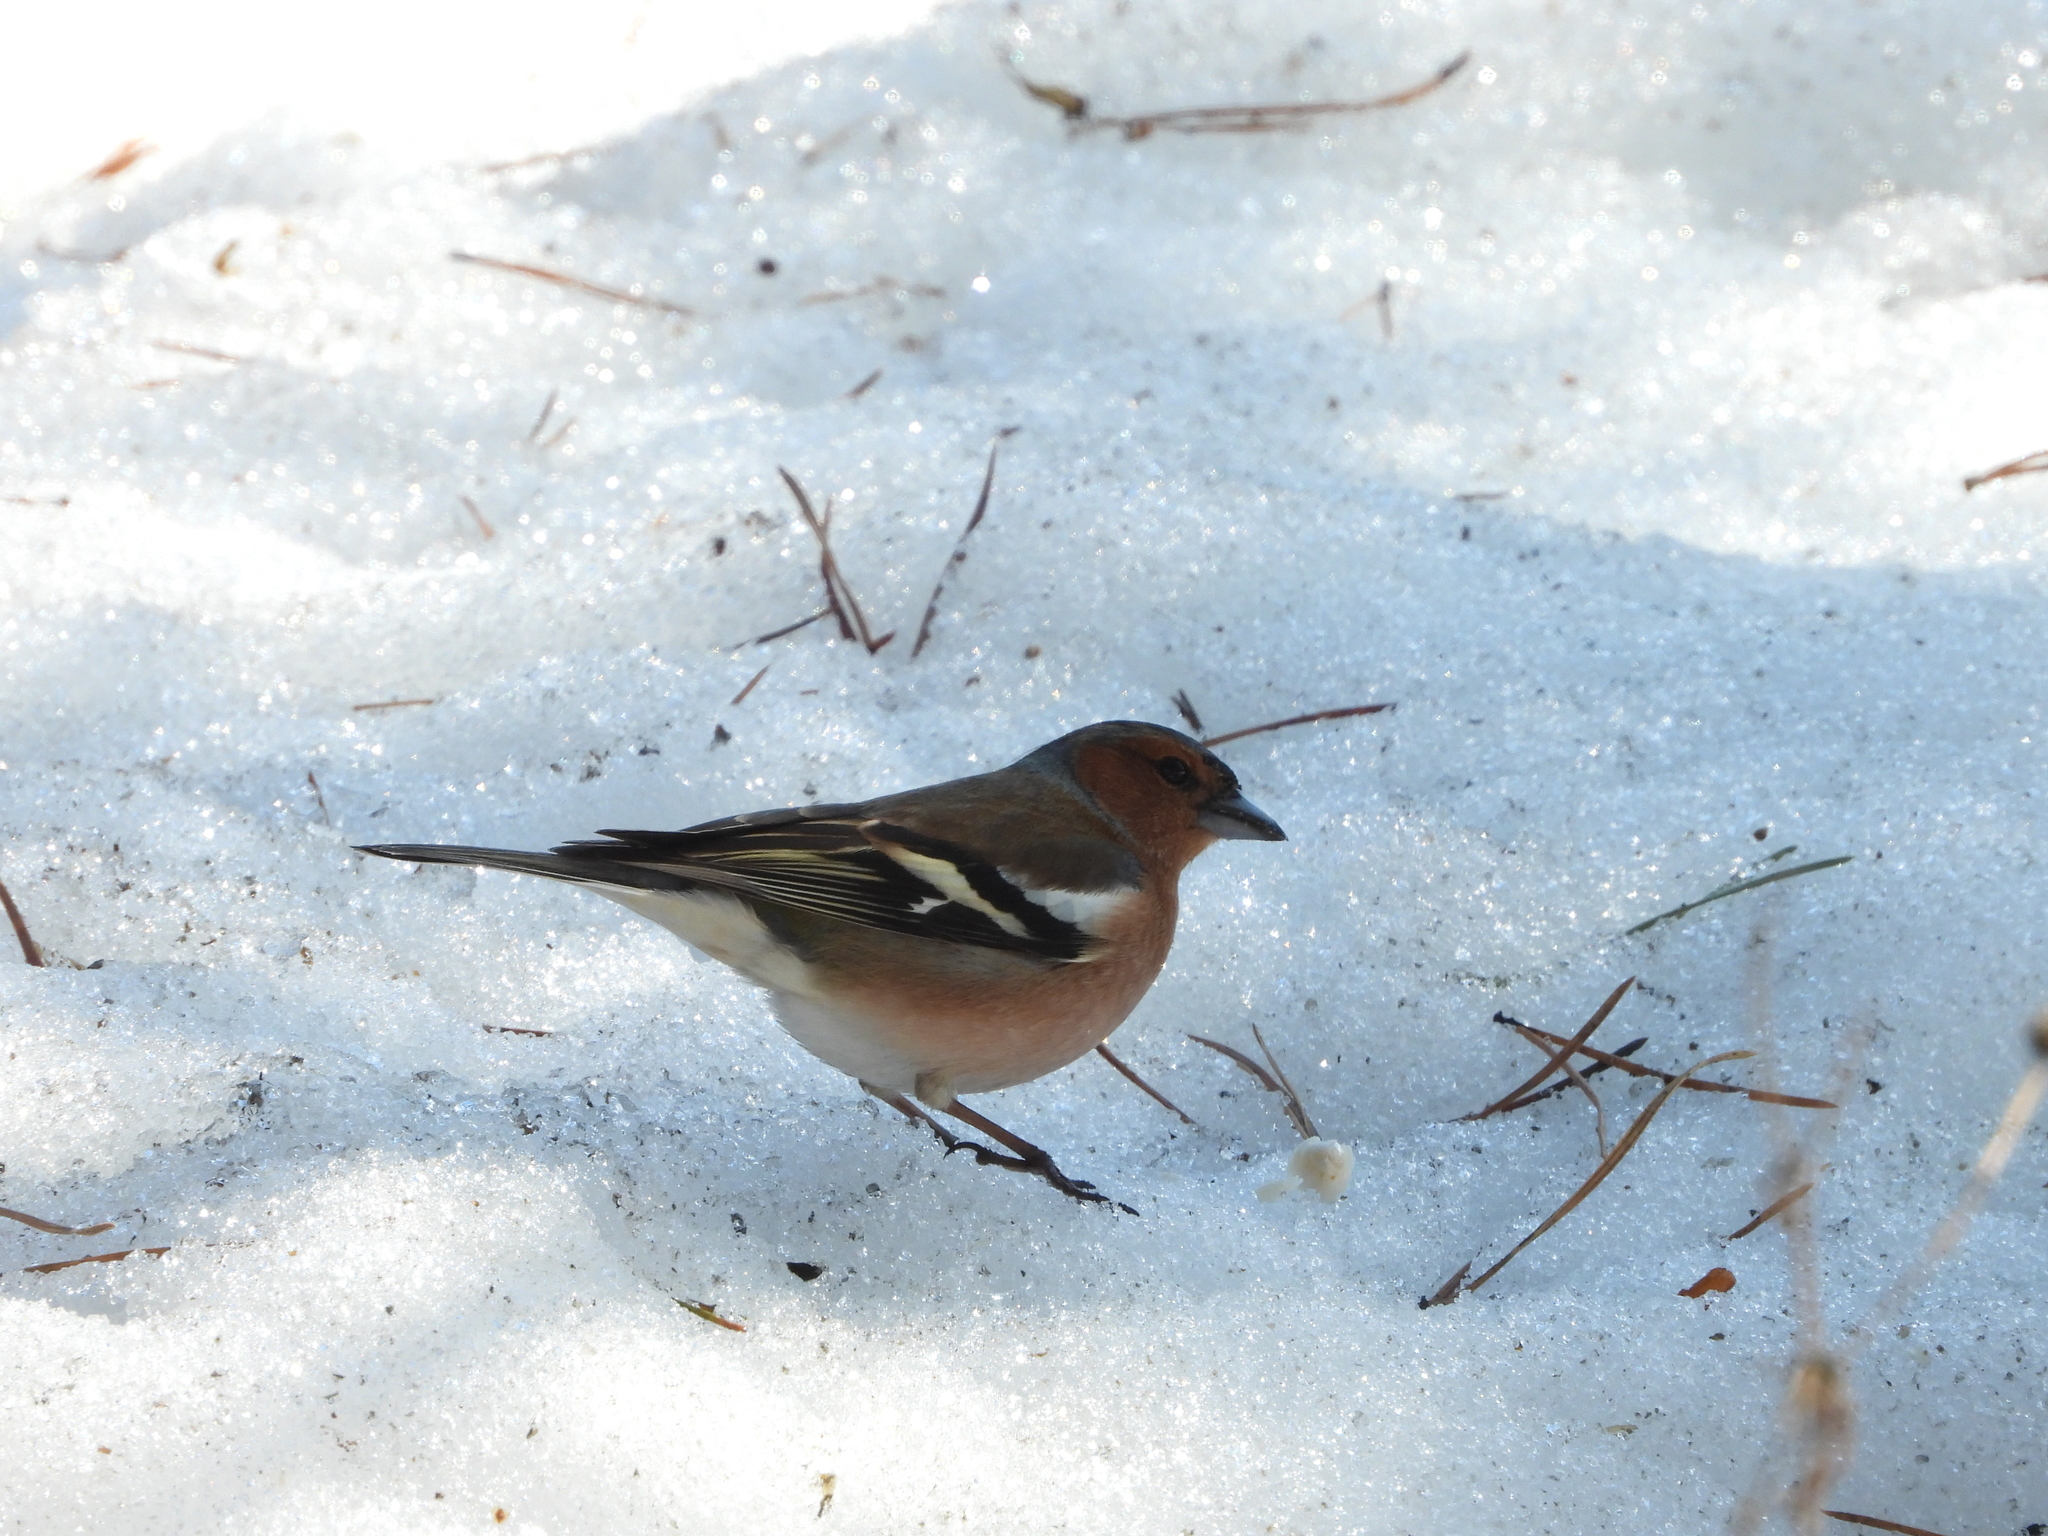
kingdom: Animalia
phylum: Chordata
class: Aves
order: Passeriformes
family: Fringillidae
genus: Fringilla
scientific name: Fringilla coelebs
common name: Common chaffinch
